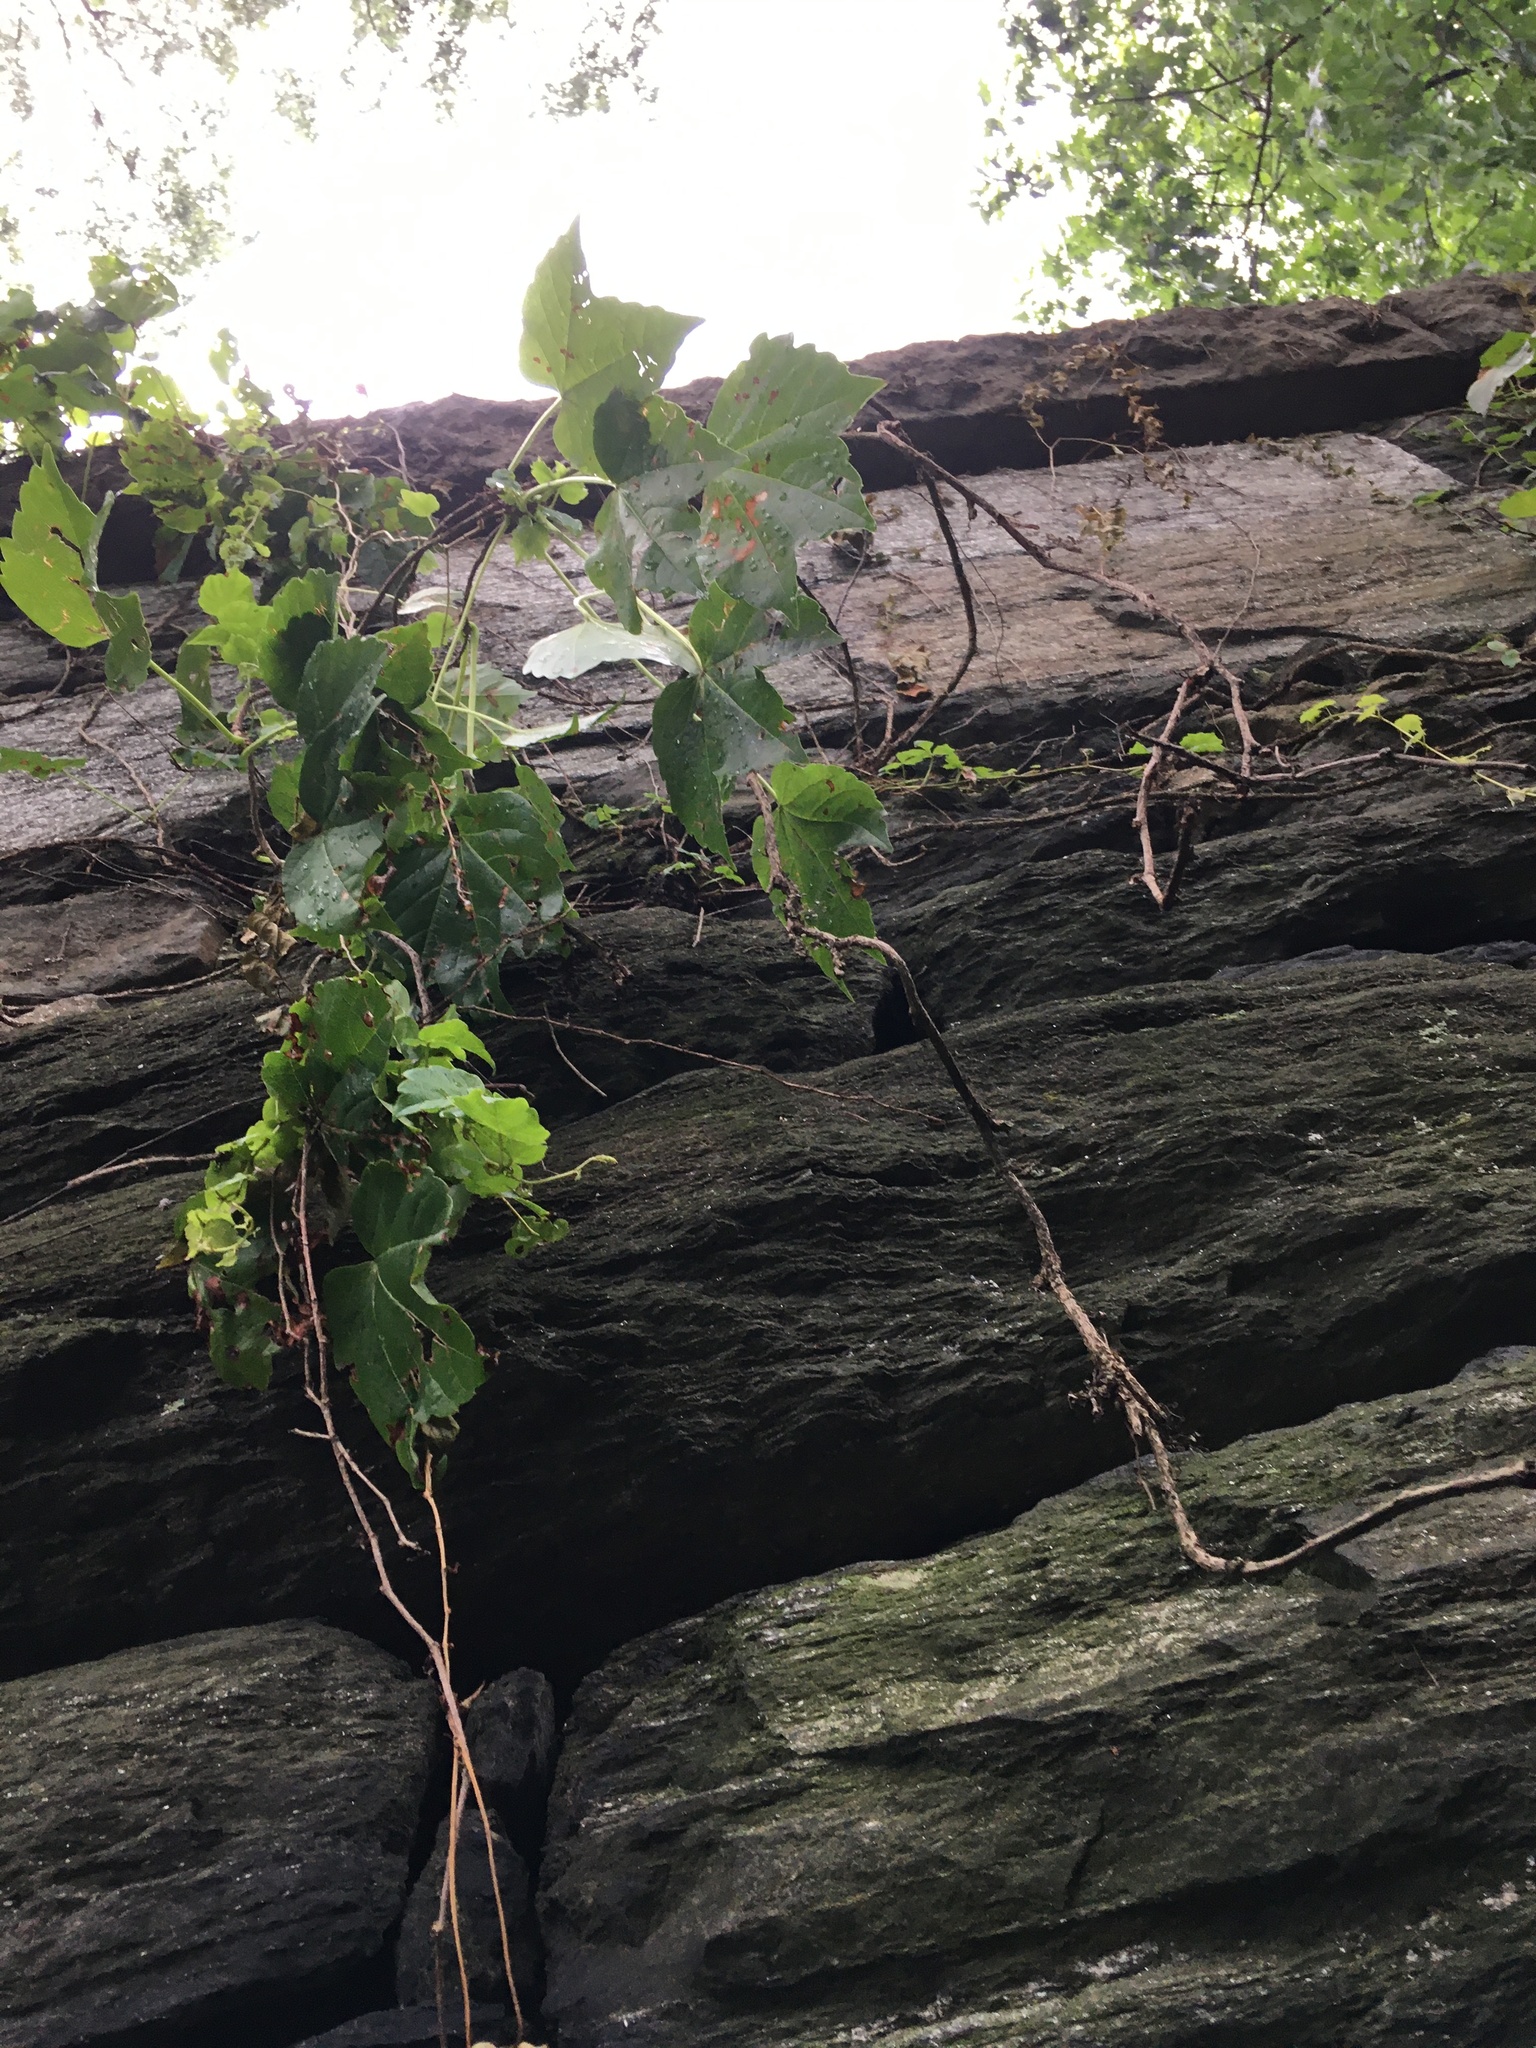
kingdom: Plantae
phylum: Tracheophyta
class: Magnoliopsida
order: Vitales
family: Vitaceae
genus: Parthenocissus
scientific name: Parthenocissus tricuspidata
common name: Boston ivy
